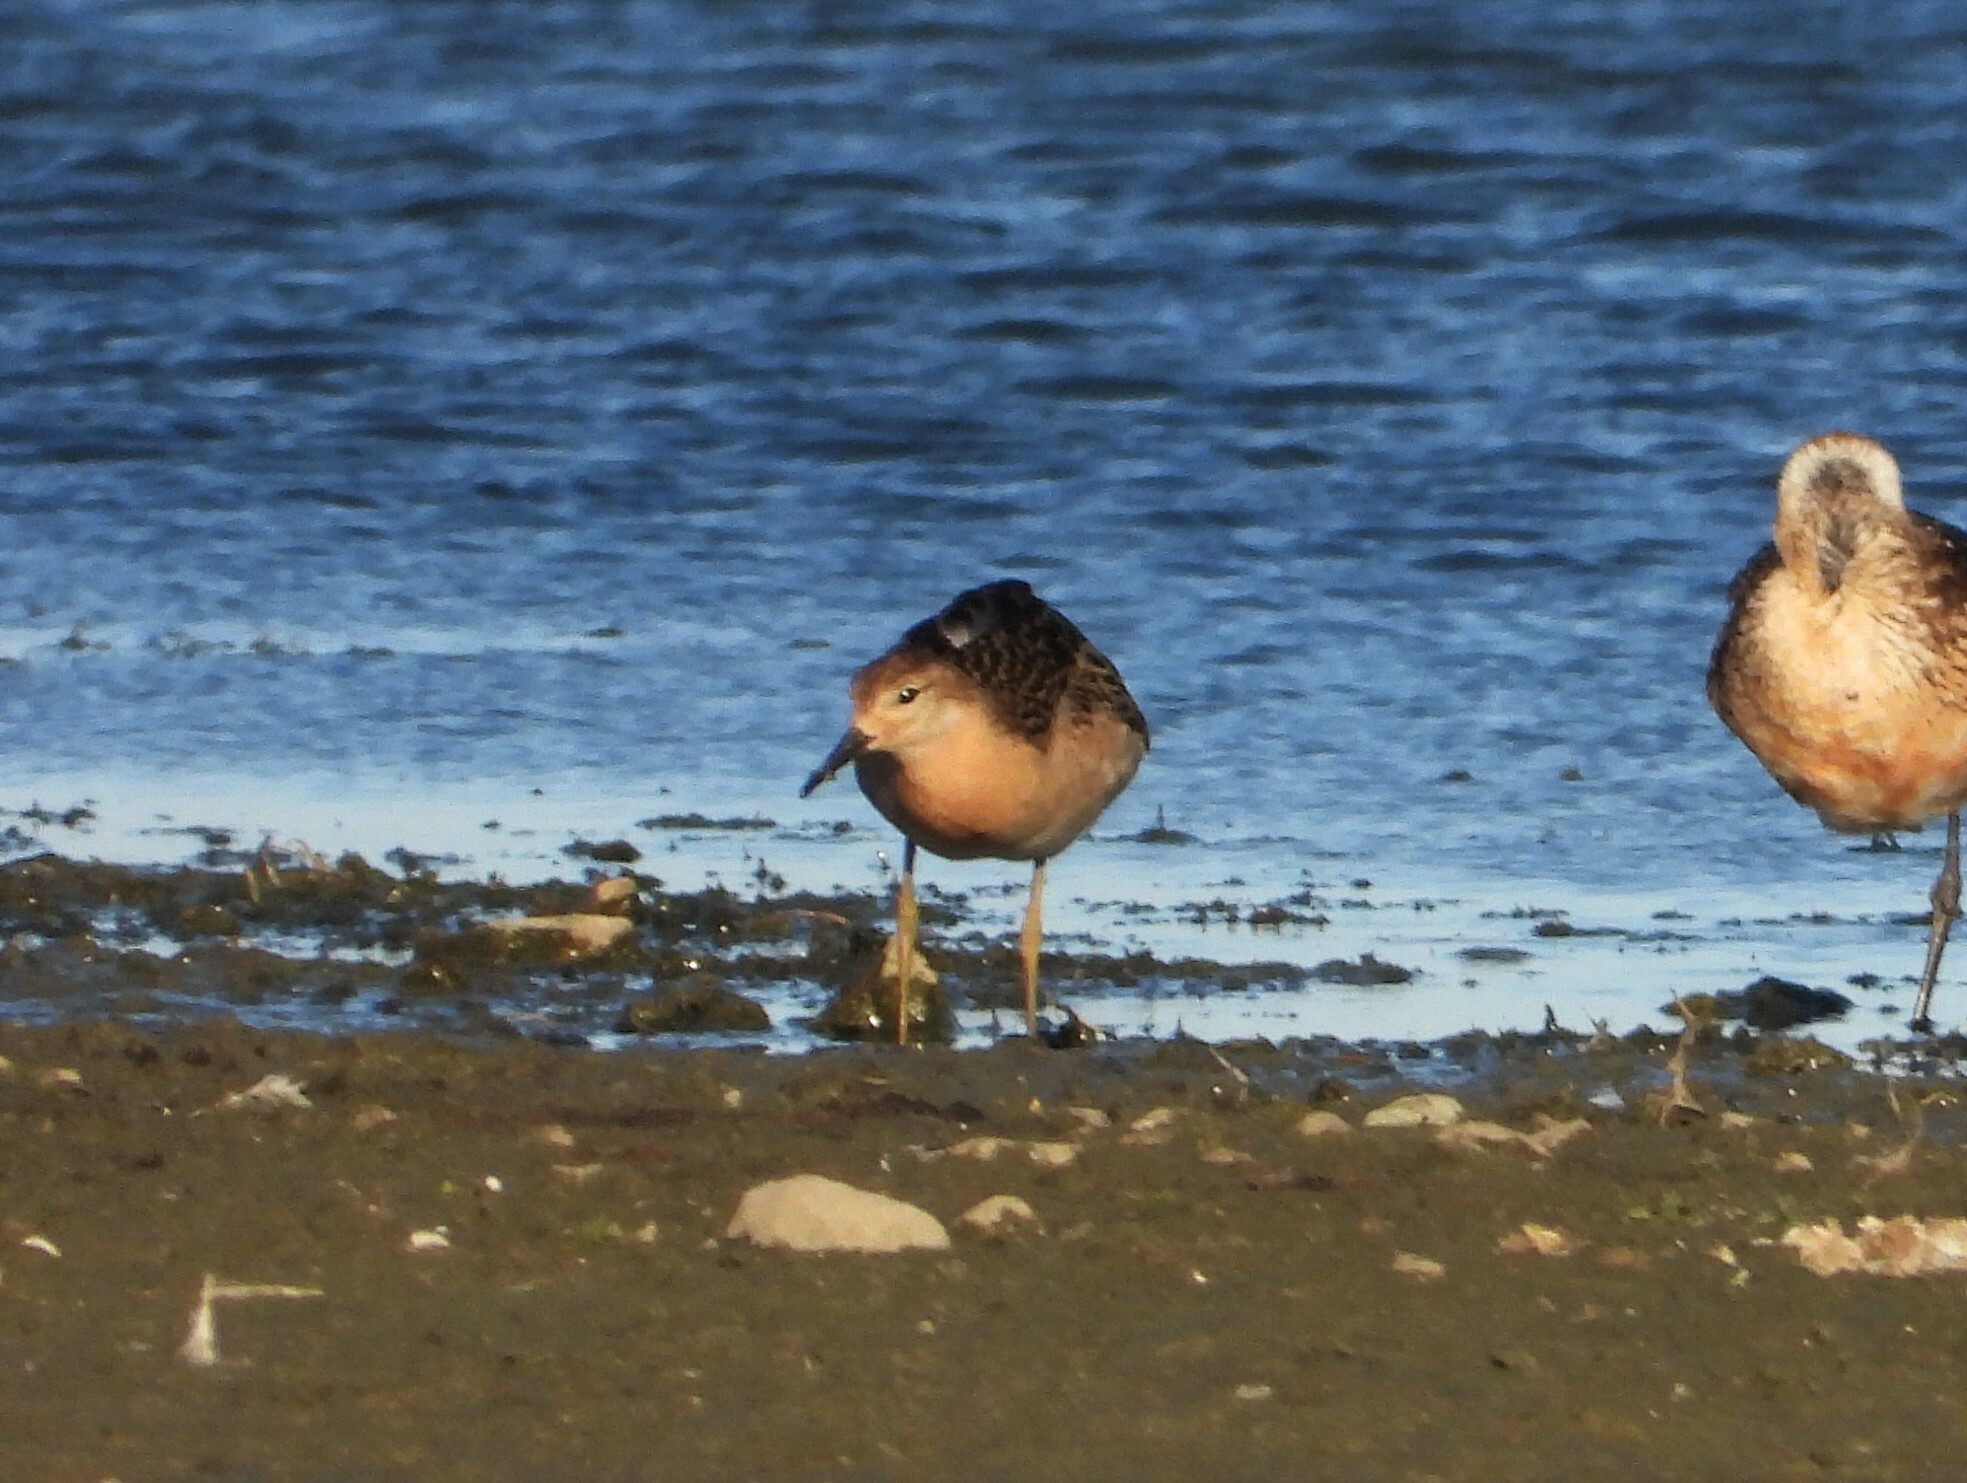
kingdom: Animalia
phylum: Chordata
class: Aves
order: Charadriiformes
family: Scolopacidae
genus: Calidris
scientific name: Calidris pugnax
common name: Ruff
